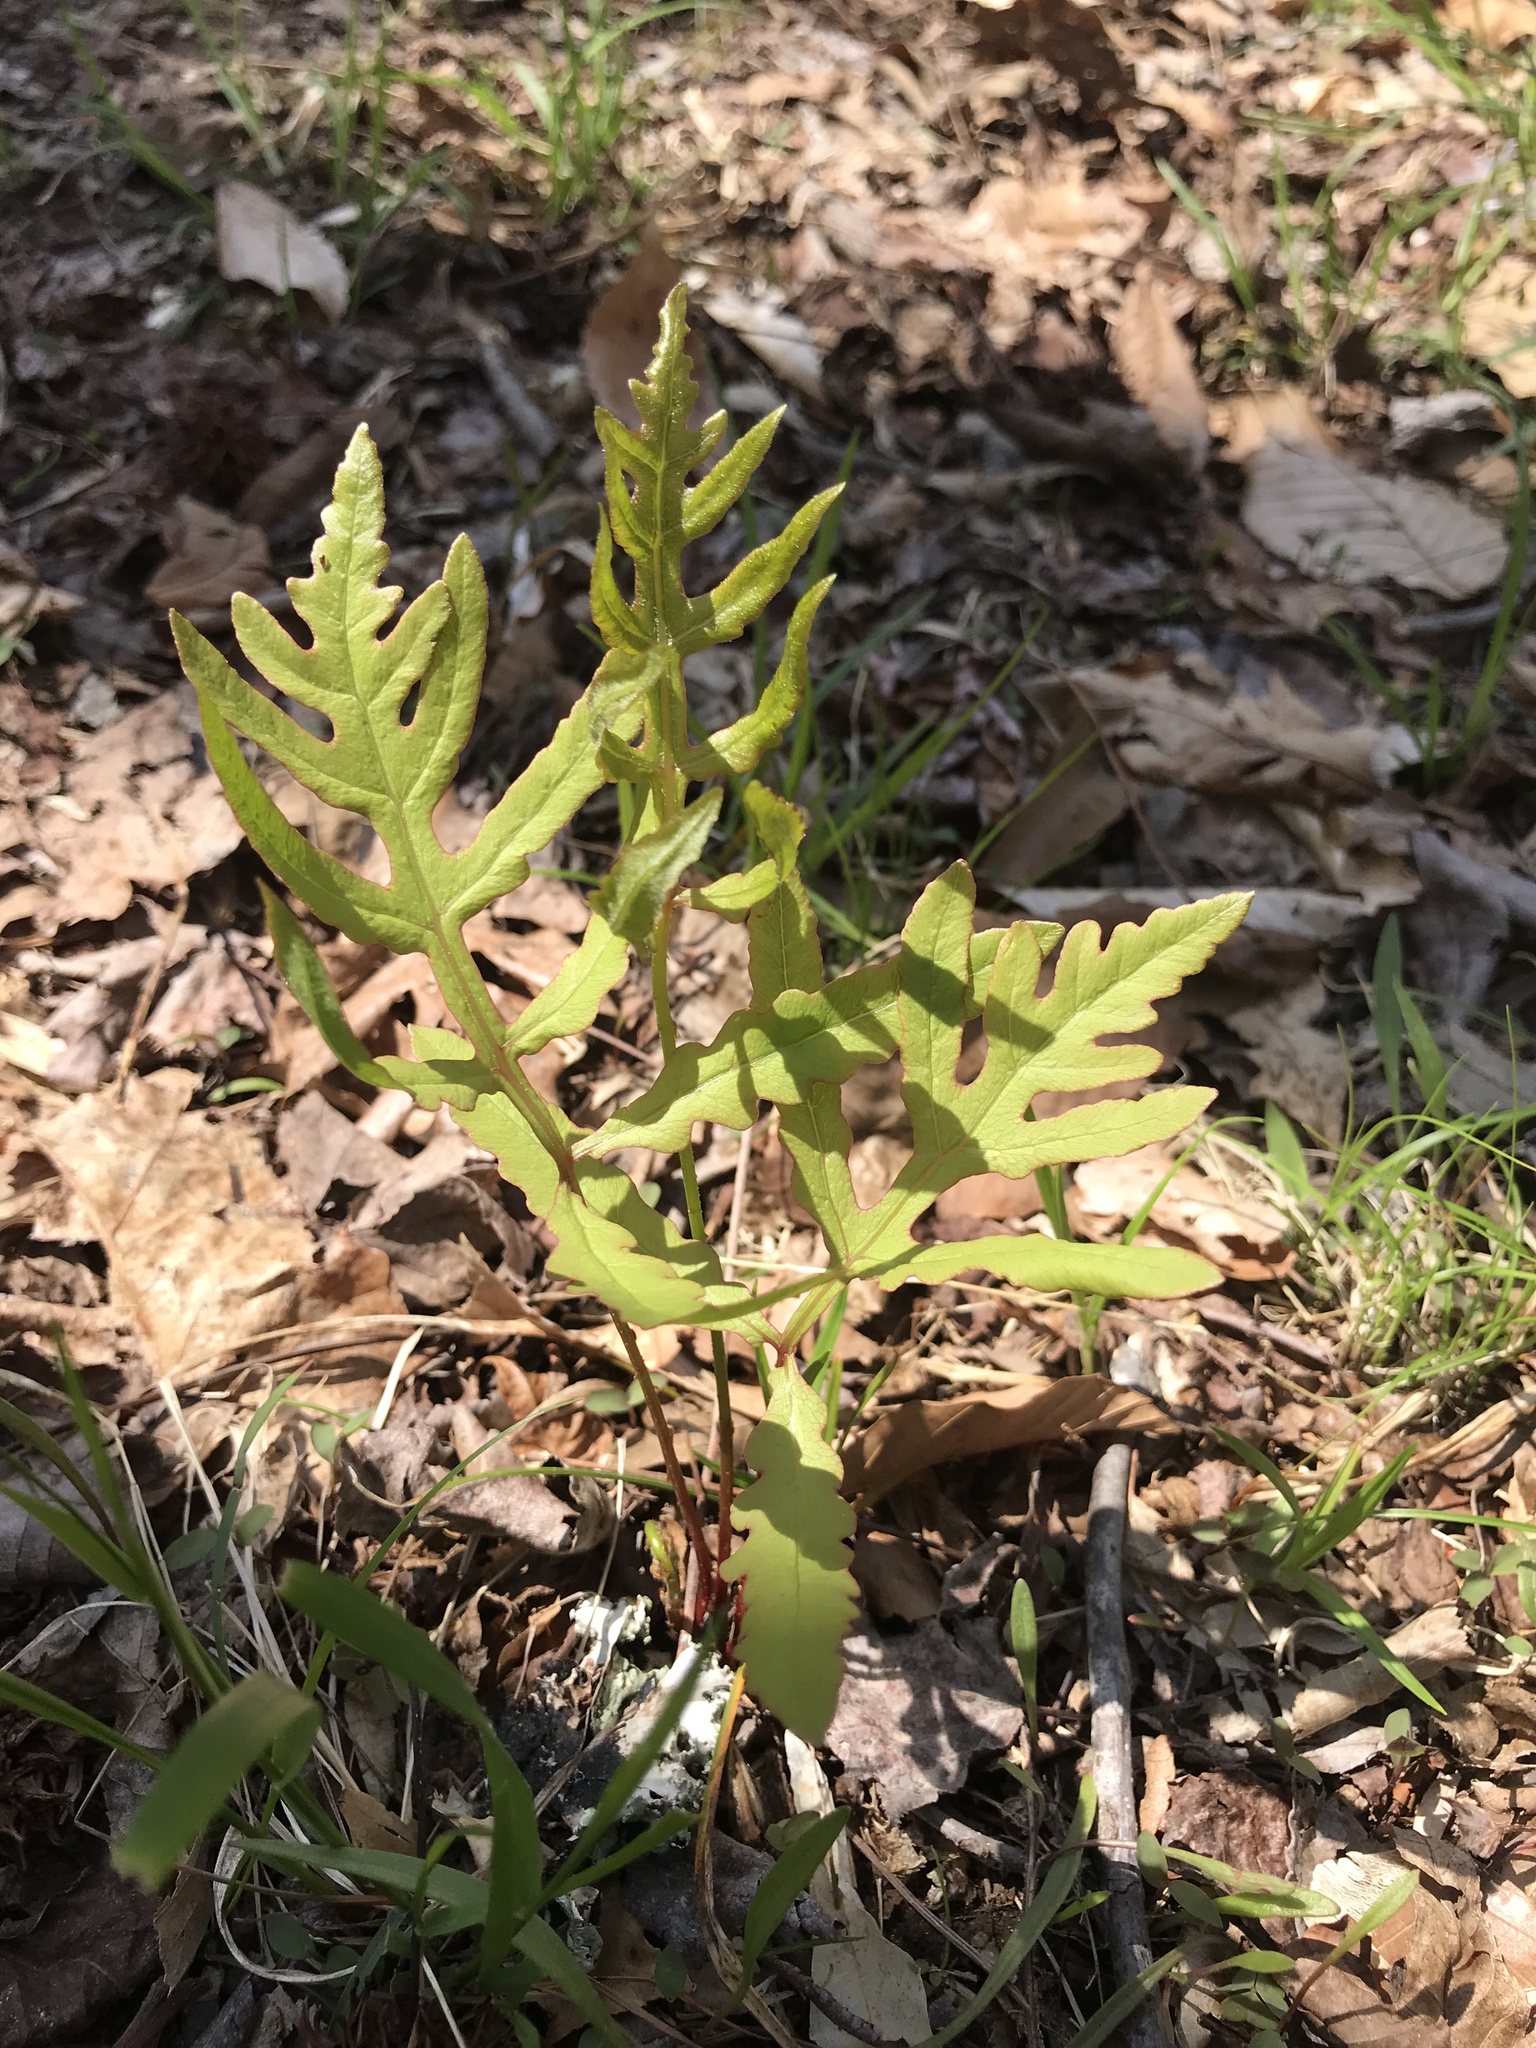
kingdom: Plantae
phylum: Tracheophyta
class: Polypodiopsida
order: Polypodiales
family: Onocleaceae
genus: Onoclea
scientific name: Onoclea sensibilis
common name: Sensitive fern
